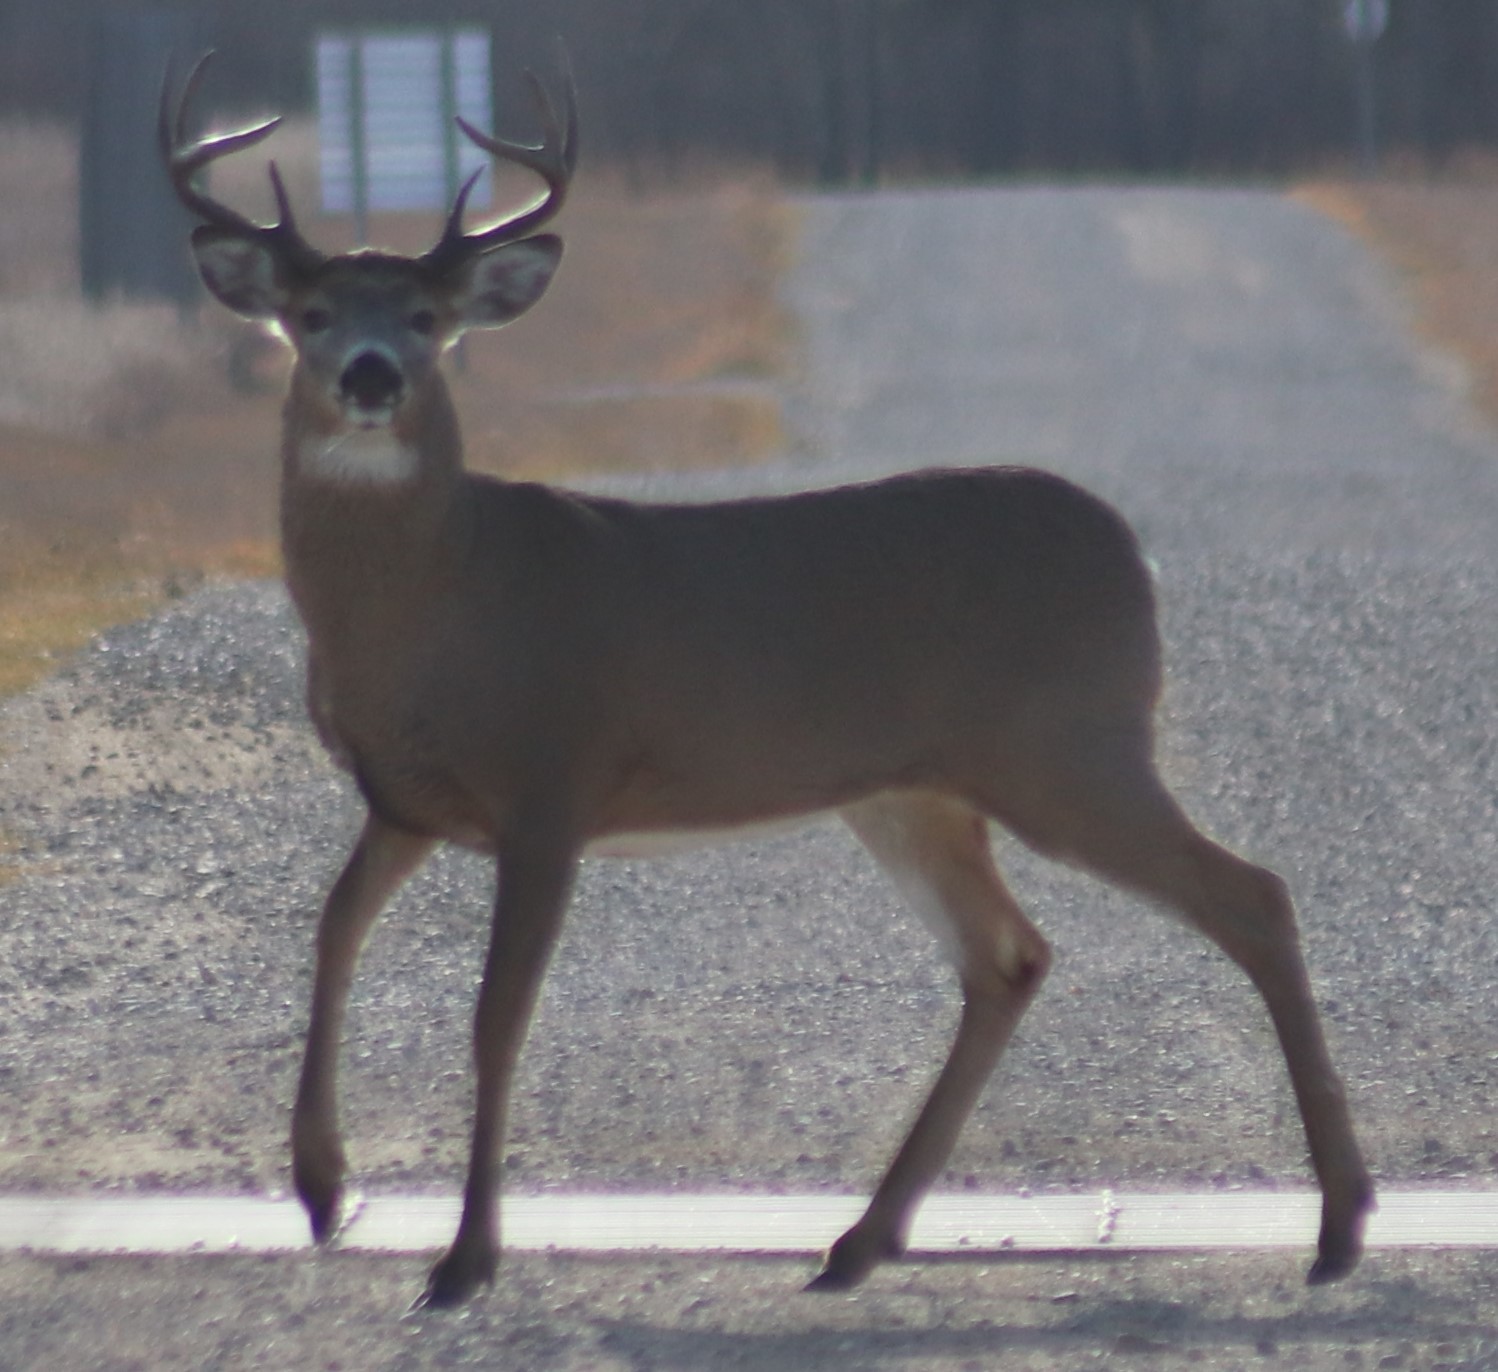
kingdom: Animalia
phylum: Chordata
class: Mammalia
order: Artiodactyla
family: Cervidae
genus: Odocoileus
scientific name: Odocoileus virginianus
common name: White-tailed deer
